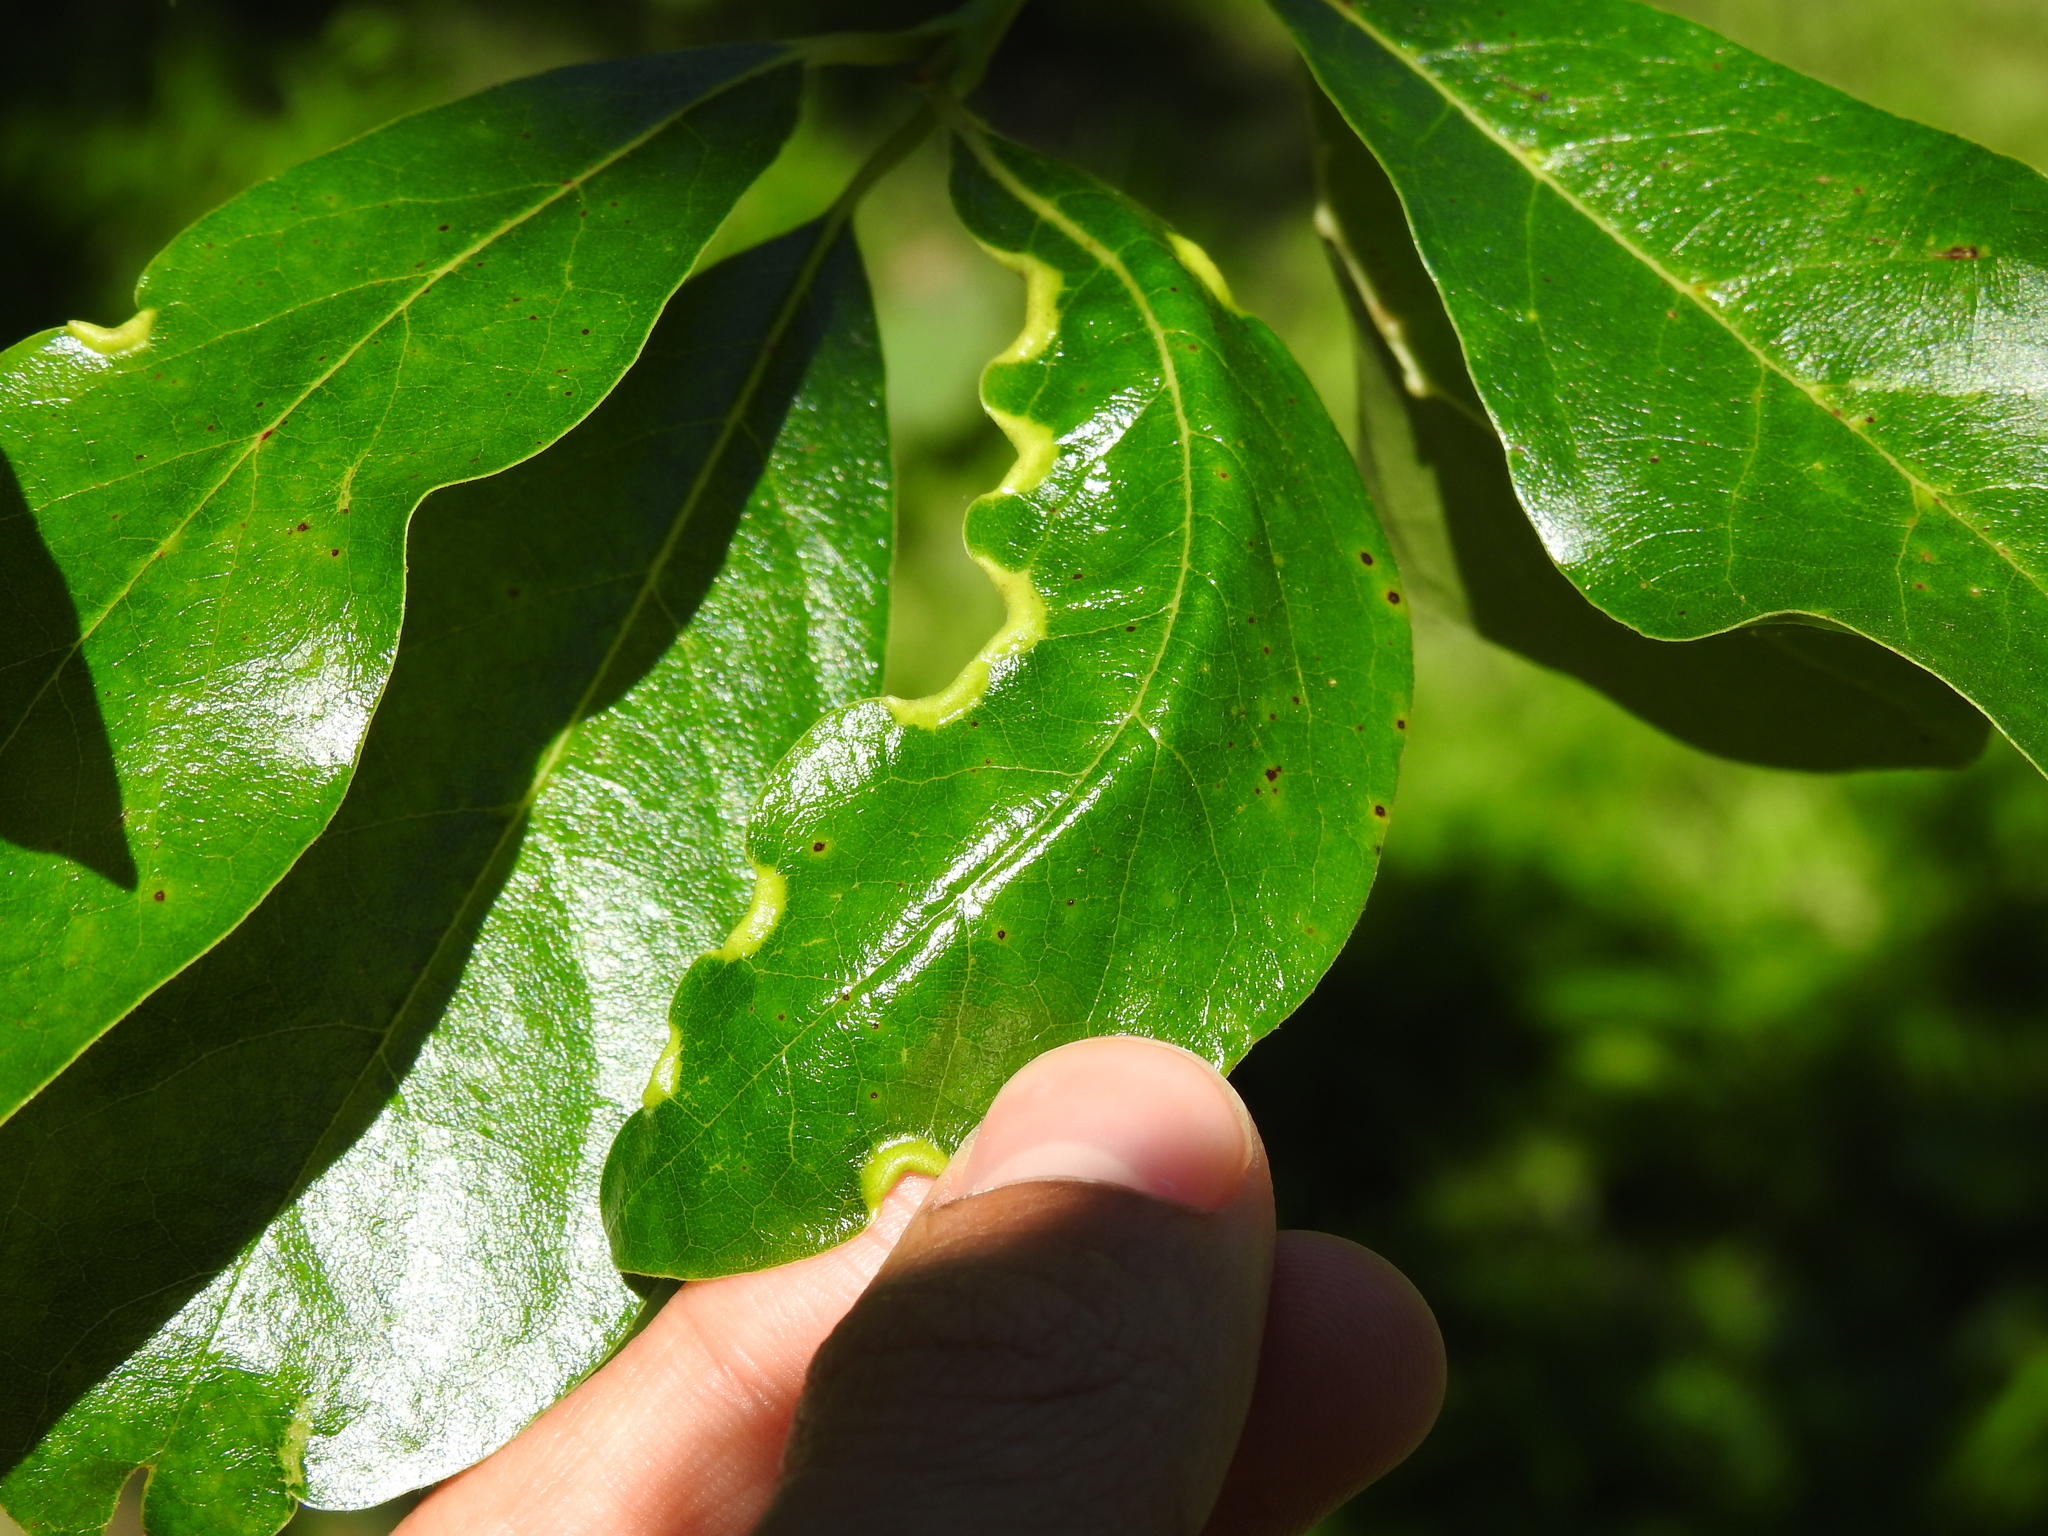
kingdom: Animalia
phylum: Arthropoda
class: Insecta
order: Hemiptera
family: Phylloxeridae
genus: Phylloxerina
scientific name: Phylloxerina nyssae
